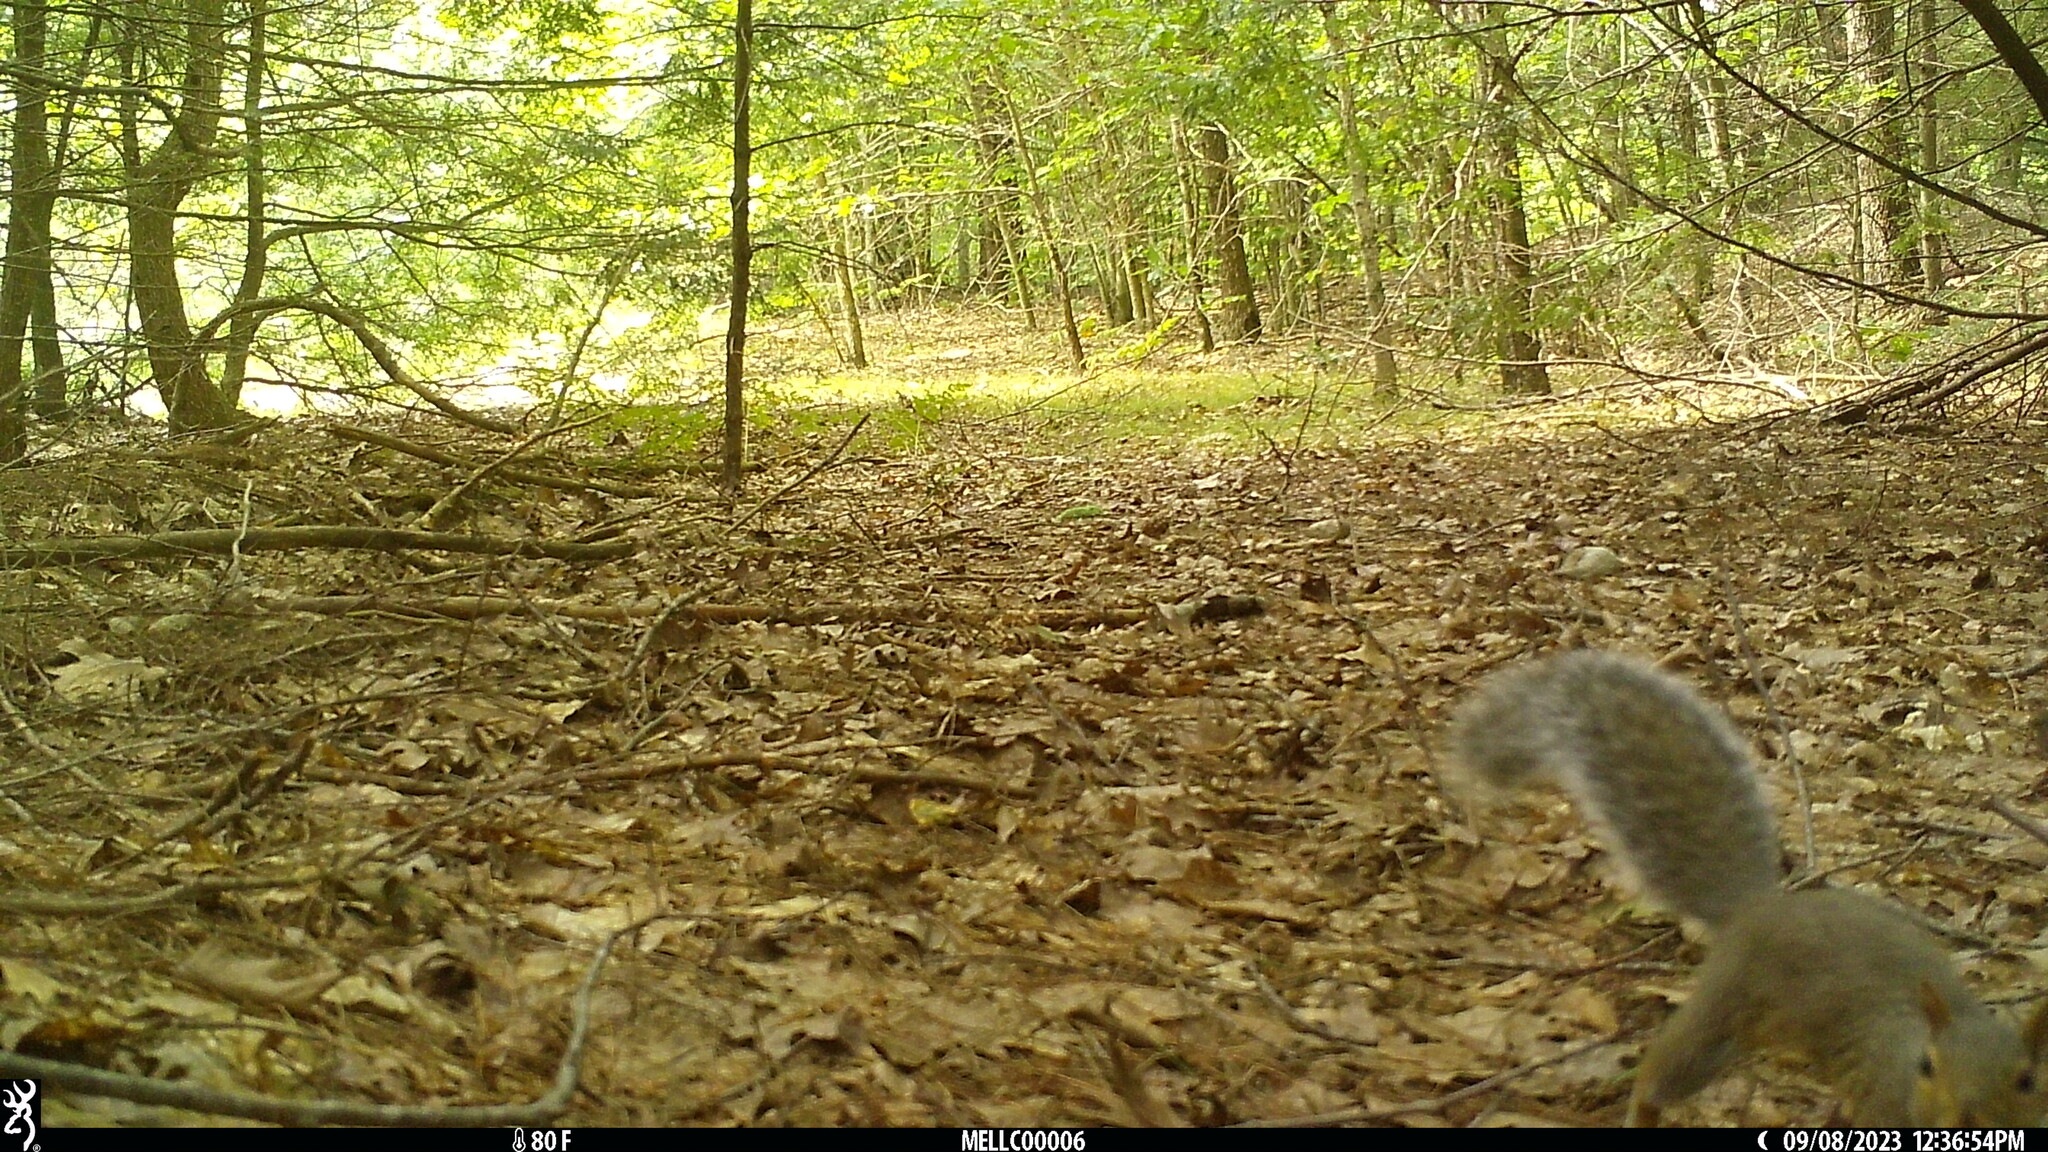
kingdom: Animalia
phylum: Chordata
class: Mammalia
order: Rodentia
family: Sciuridae
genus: Sciurus
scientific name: Sciurus carolinensis
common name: Eastern gray squirrel
